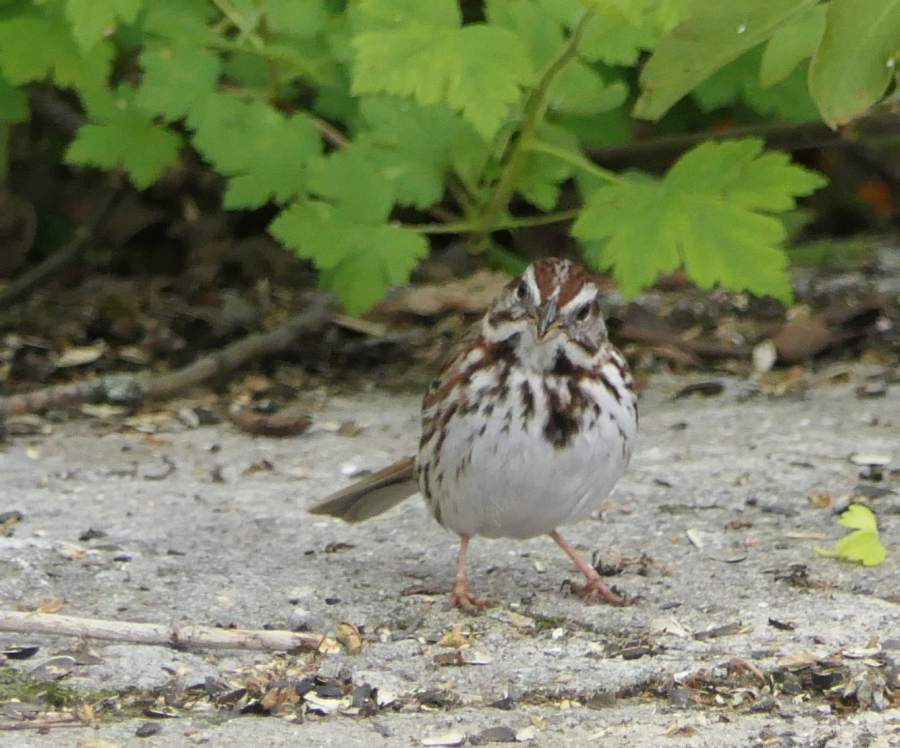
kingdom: Animalia
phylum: Chordata
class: Aves
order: Passeriformes
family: Passerellidae
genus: Melospiza
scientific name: Melospiza melodia
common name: Song sparrow
